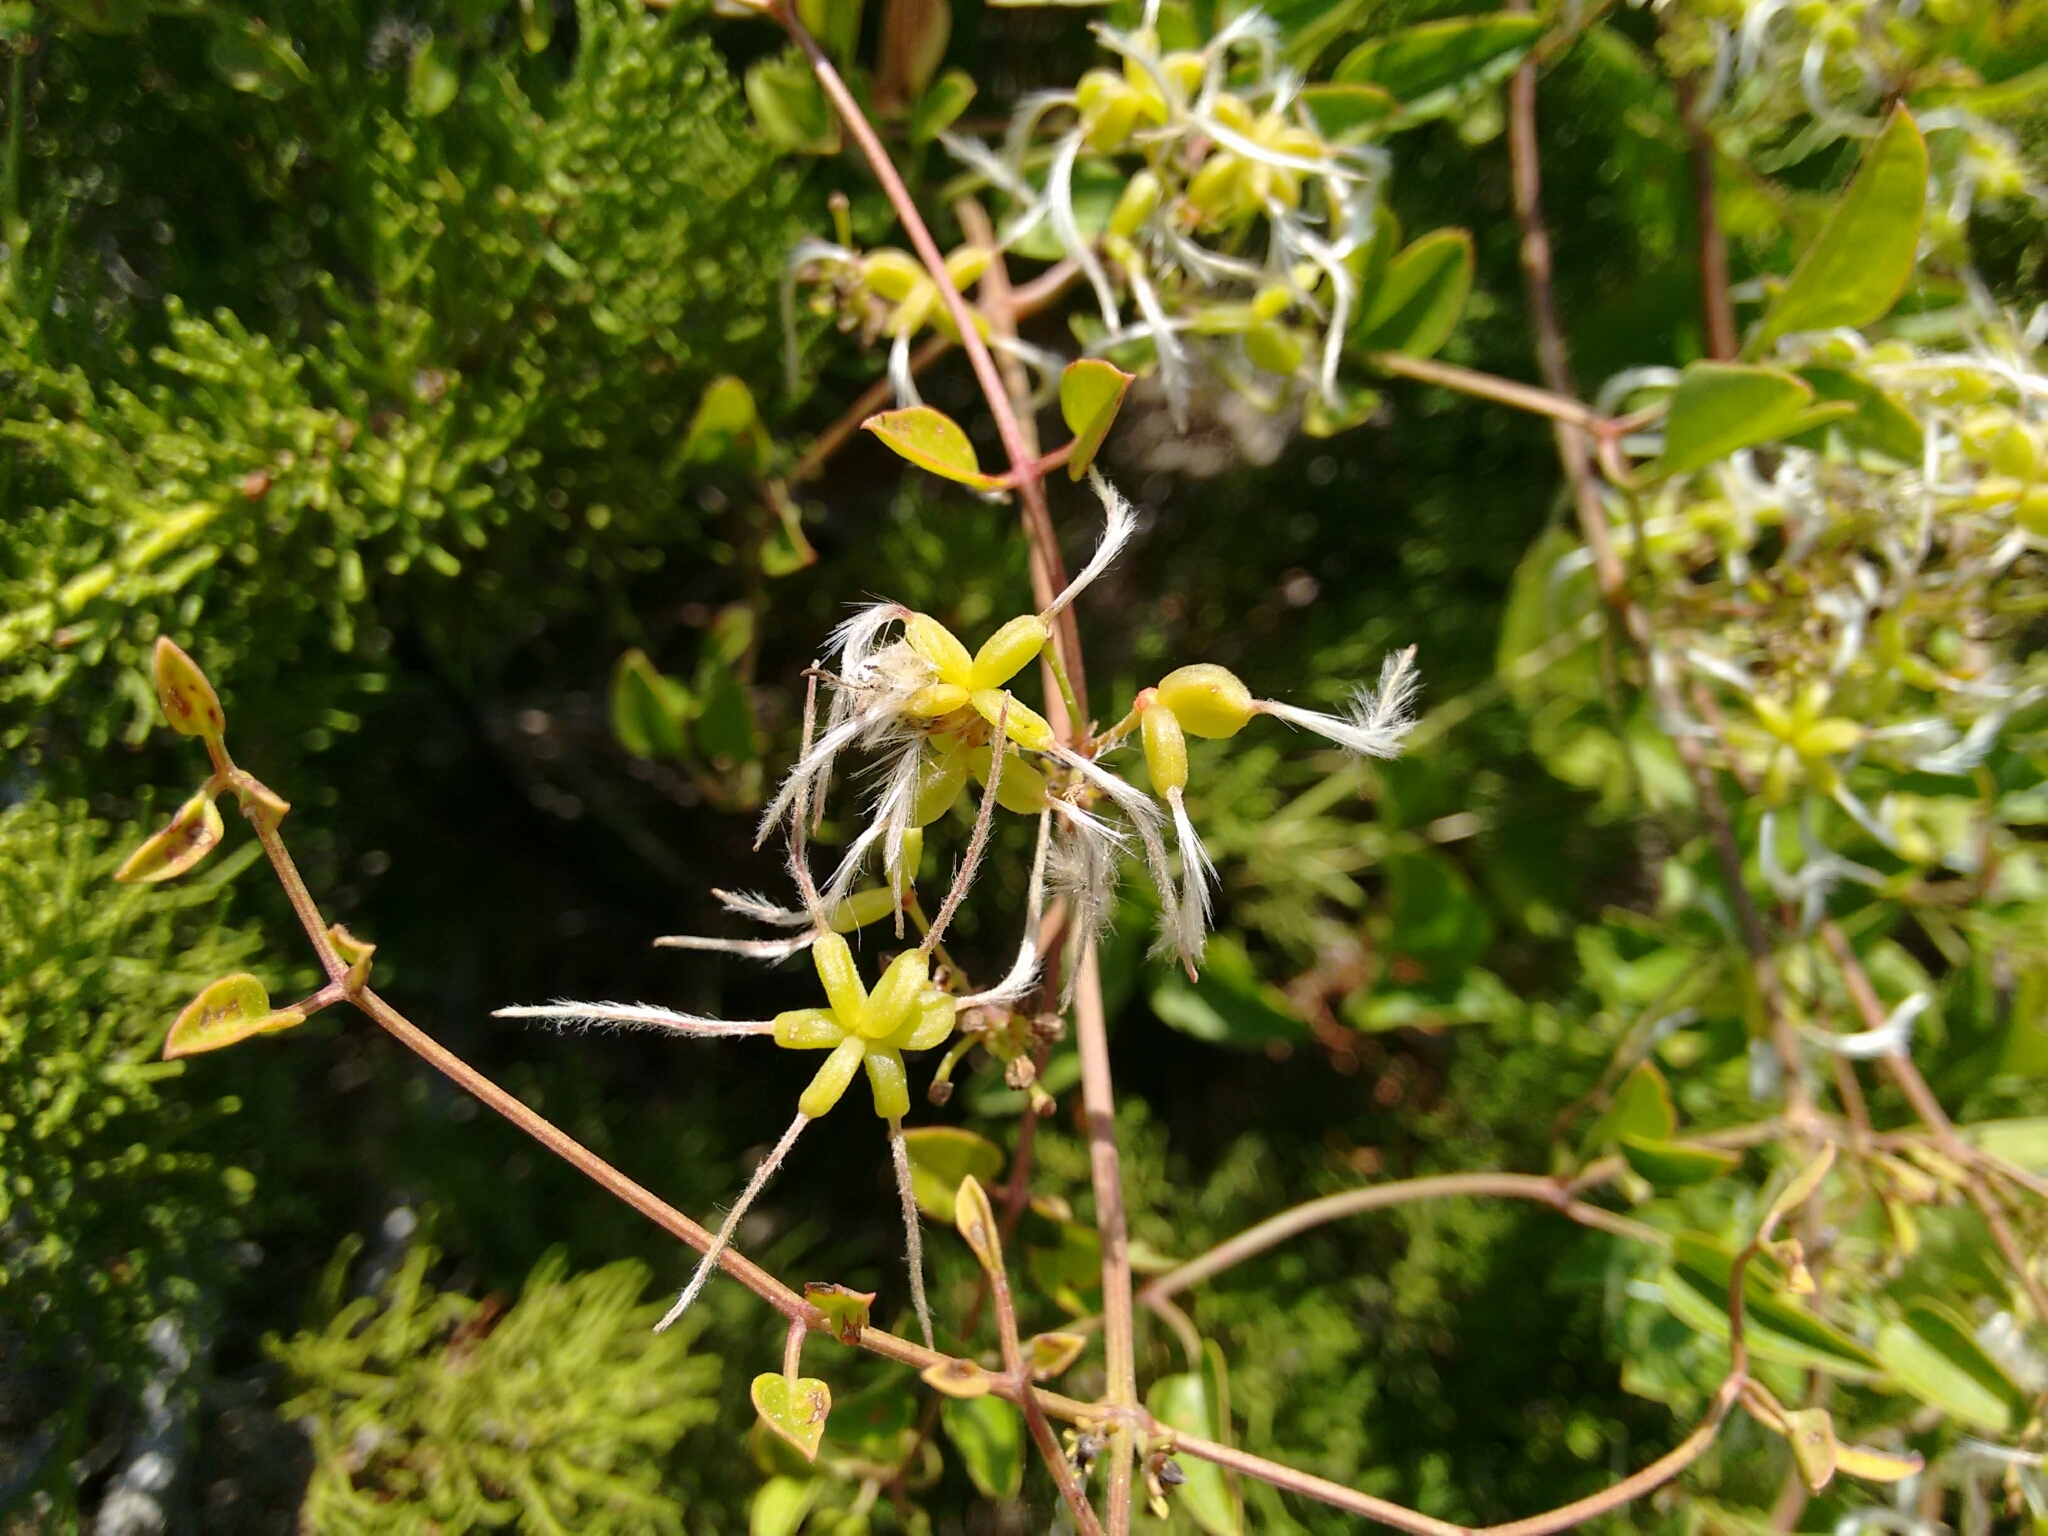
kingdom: Plantae
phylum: Tracheophyta
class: Magnoliopsida
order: Ranunculales
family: Ranunculaceae
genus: Clematis
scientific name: Clematis flammula
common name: Virgin's-bower
